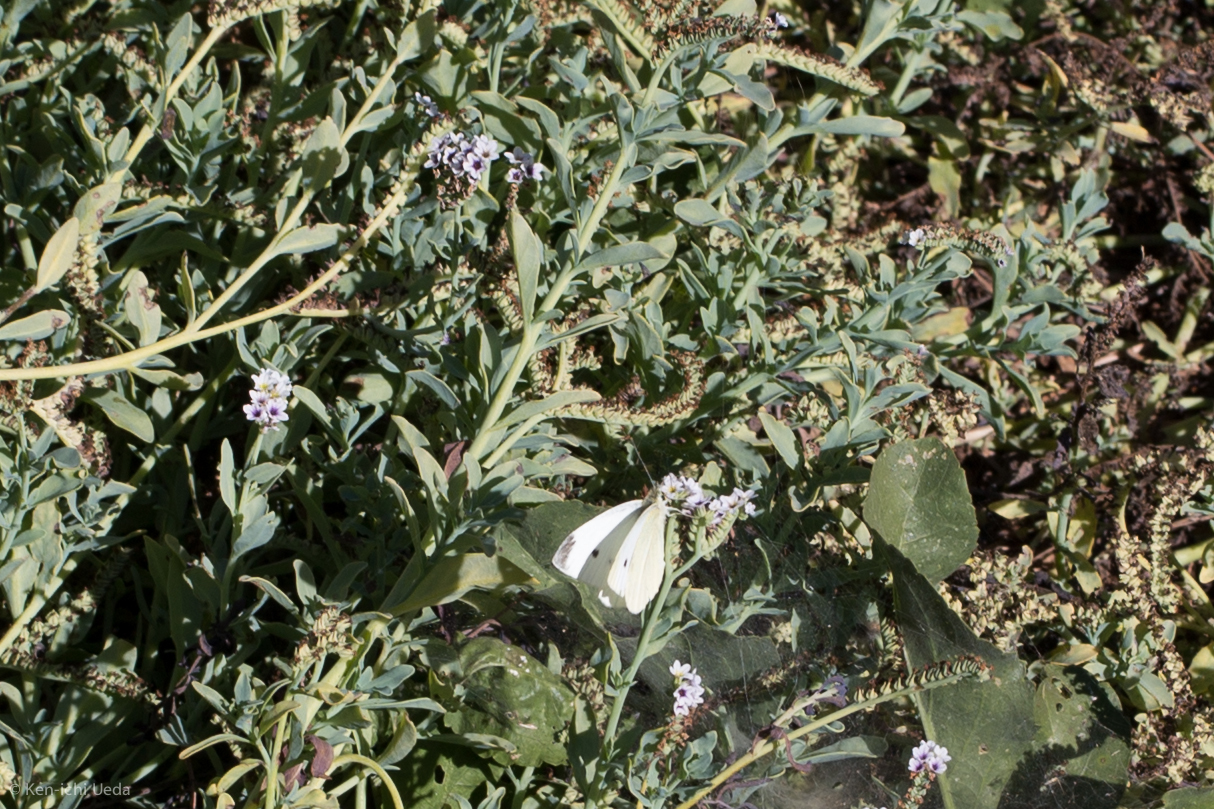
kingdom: Animalia
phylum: Arthropoda
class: Insecta
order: Lepidoptera
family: Pieridae
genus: Pieris
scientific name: Pieris rapae
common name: Small white
